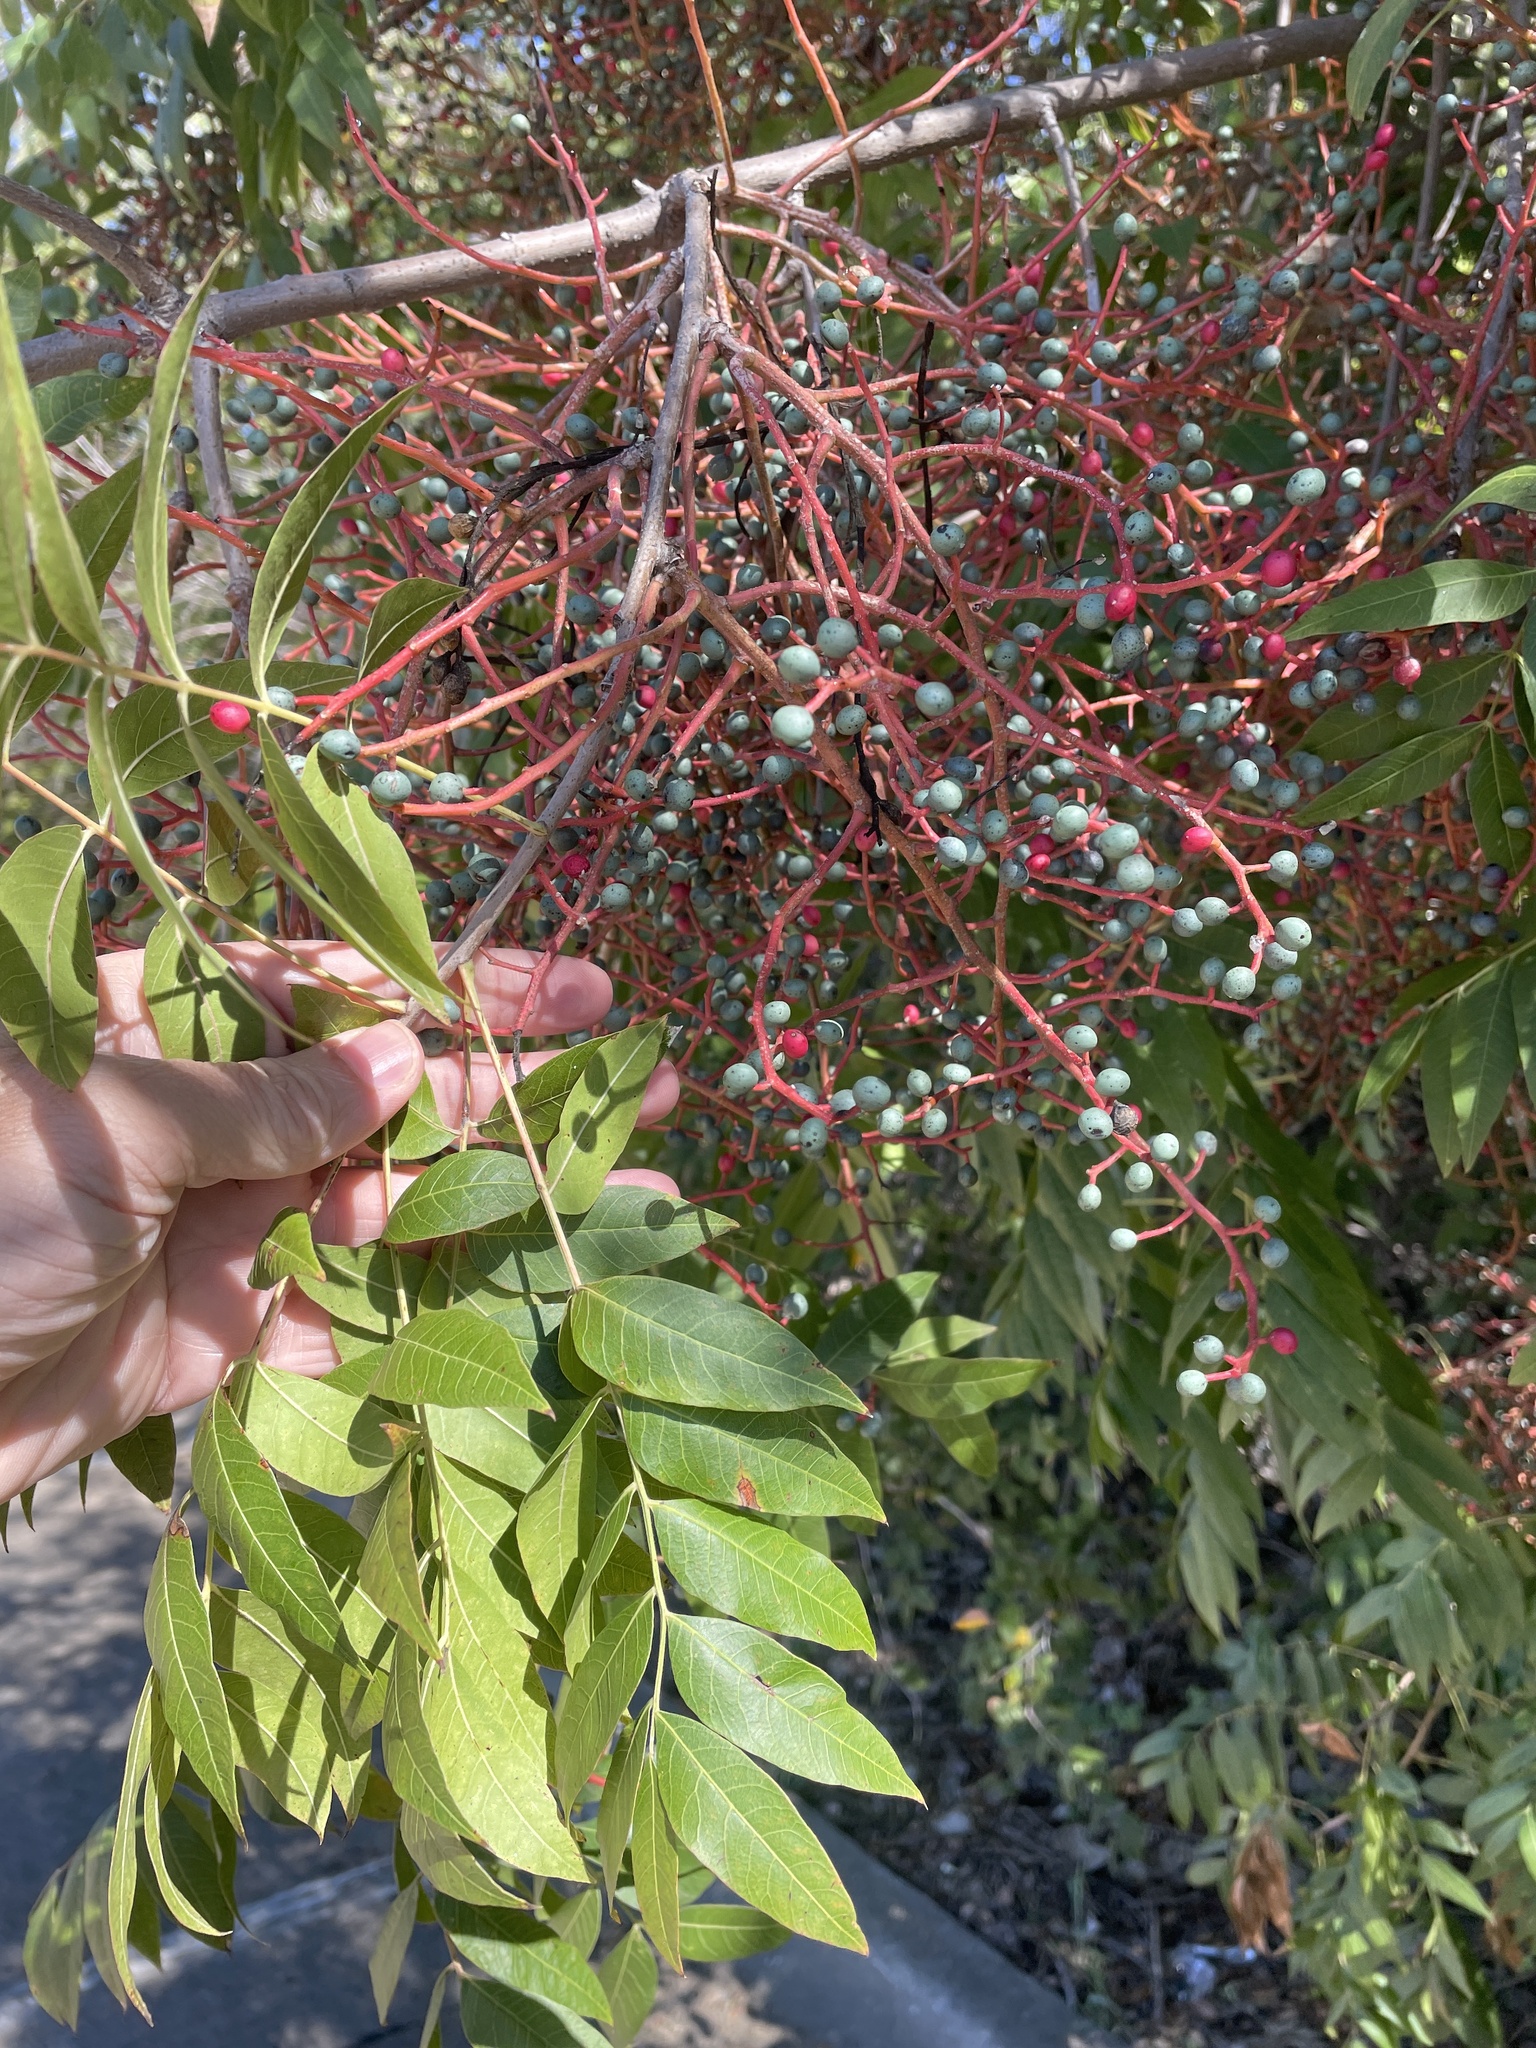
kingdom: Plantae
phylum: Tracheophyta
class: Magnoliopsida
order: Sapindales
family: Anacardiaceae
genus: Pistacia
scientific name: Pistacia chinensis
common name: Chinese pistache
